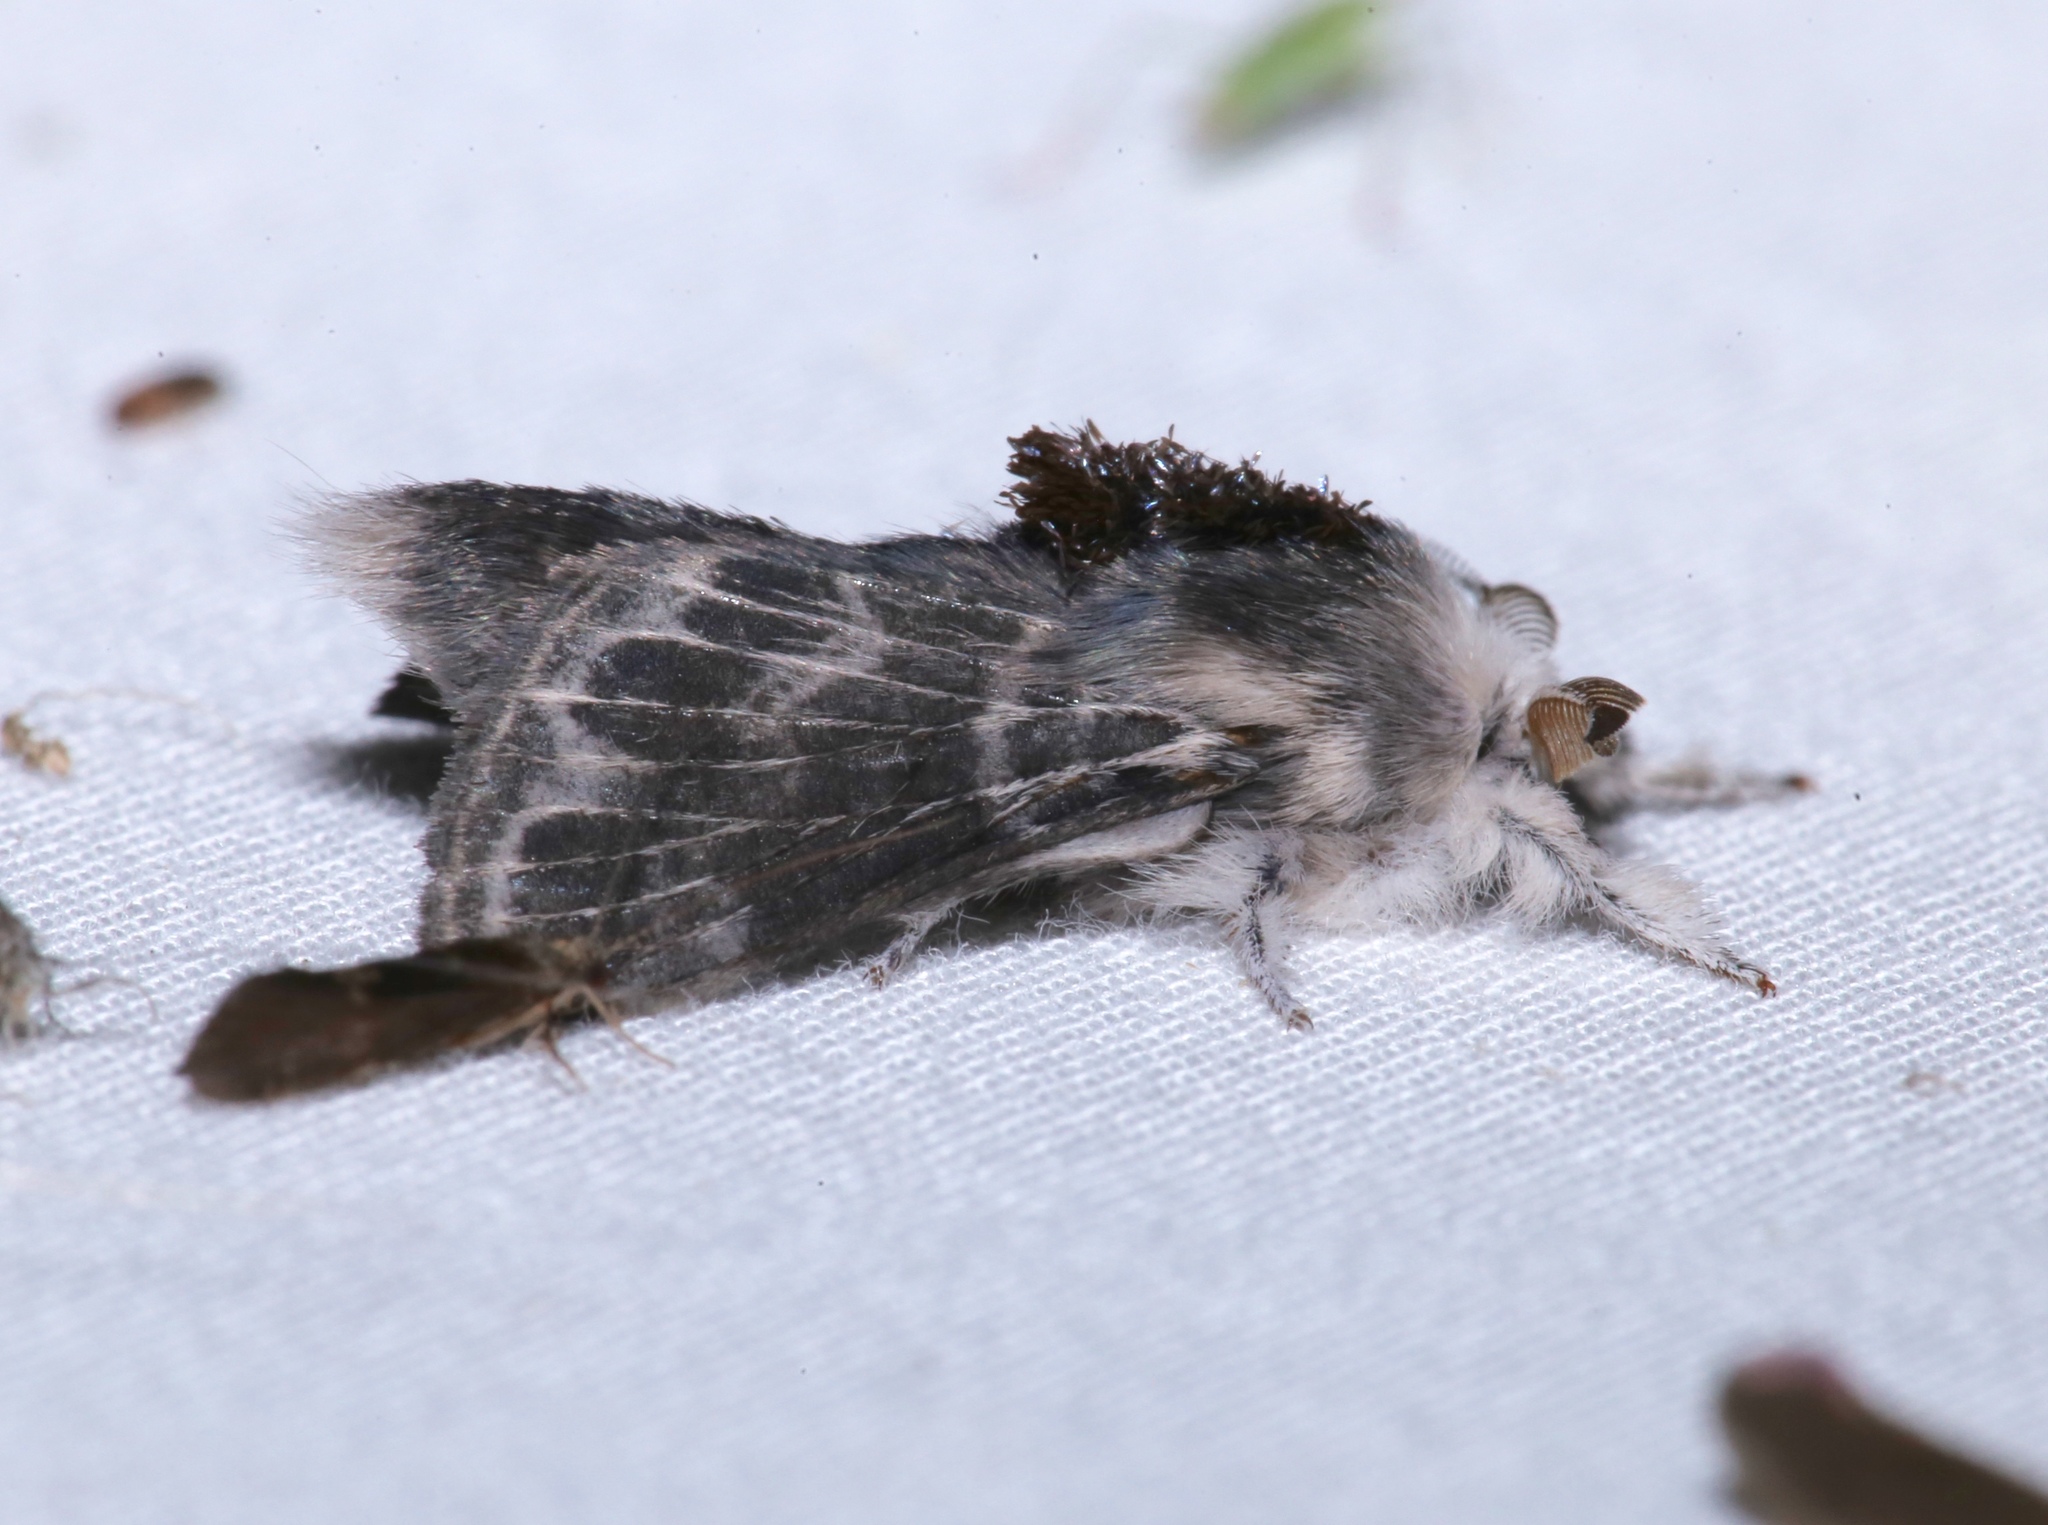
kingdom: Animalia
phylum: Arthropoda
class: Insecta
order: Lepidoptera
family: Lasiocampidae
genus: Tolype
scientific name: Tolype laricis
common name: Larch tolype moth
